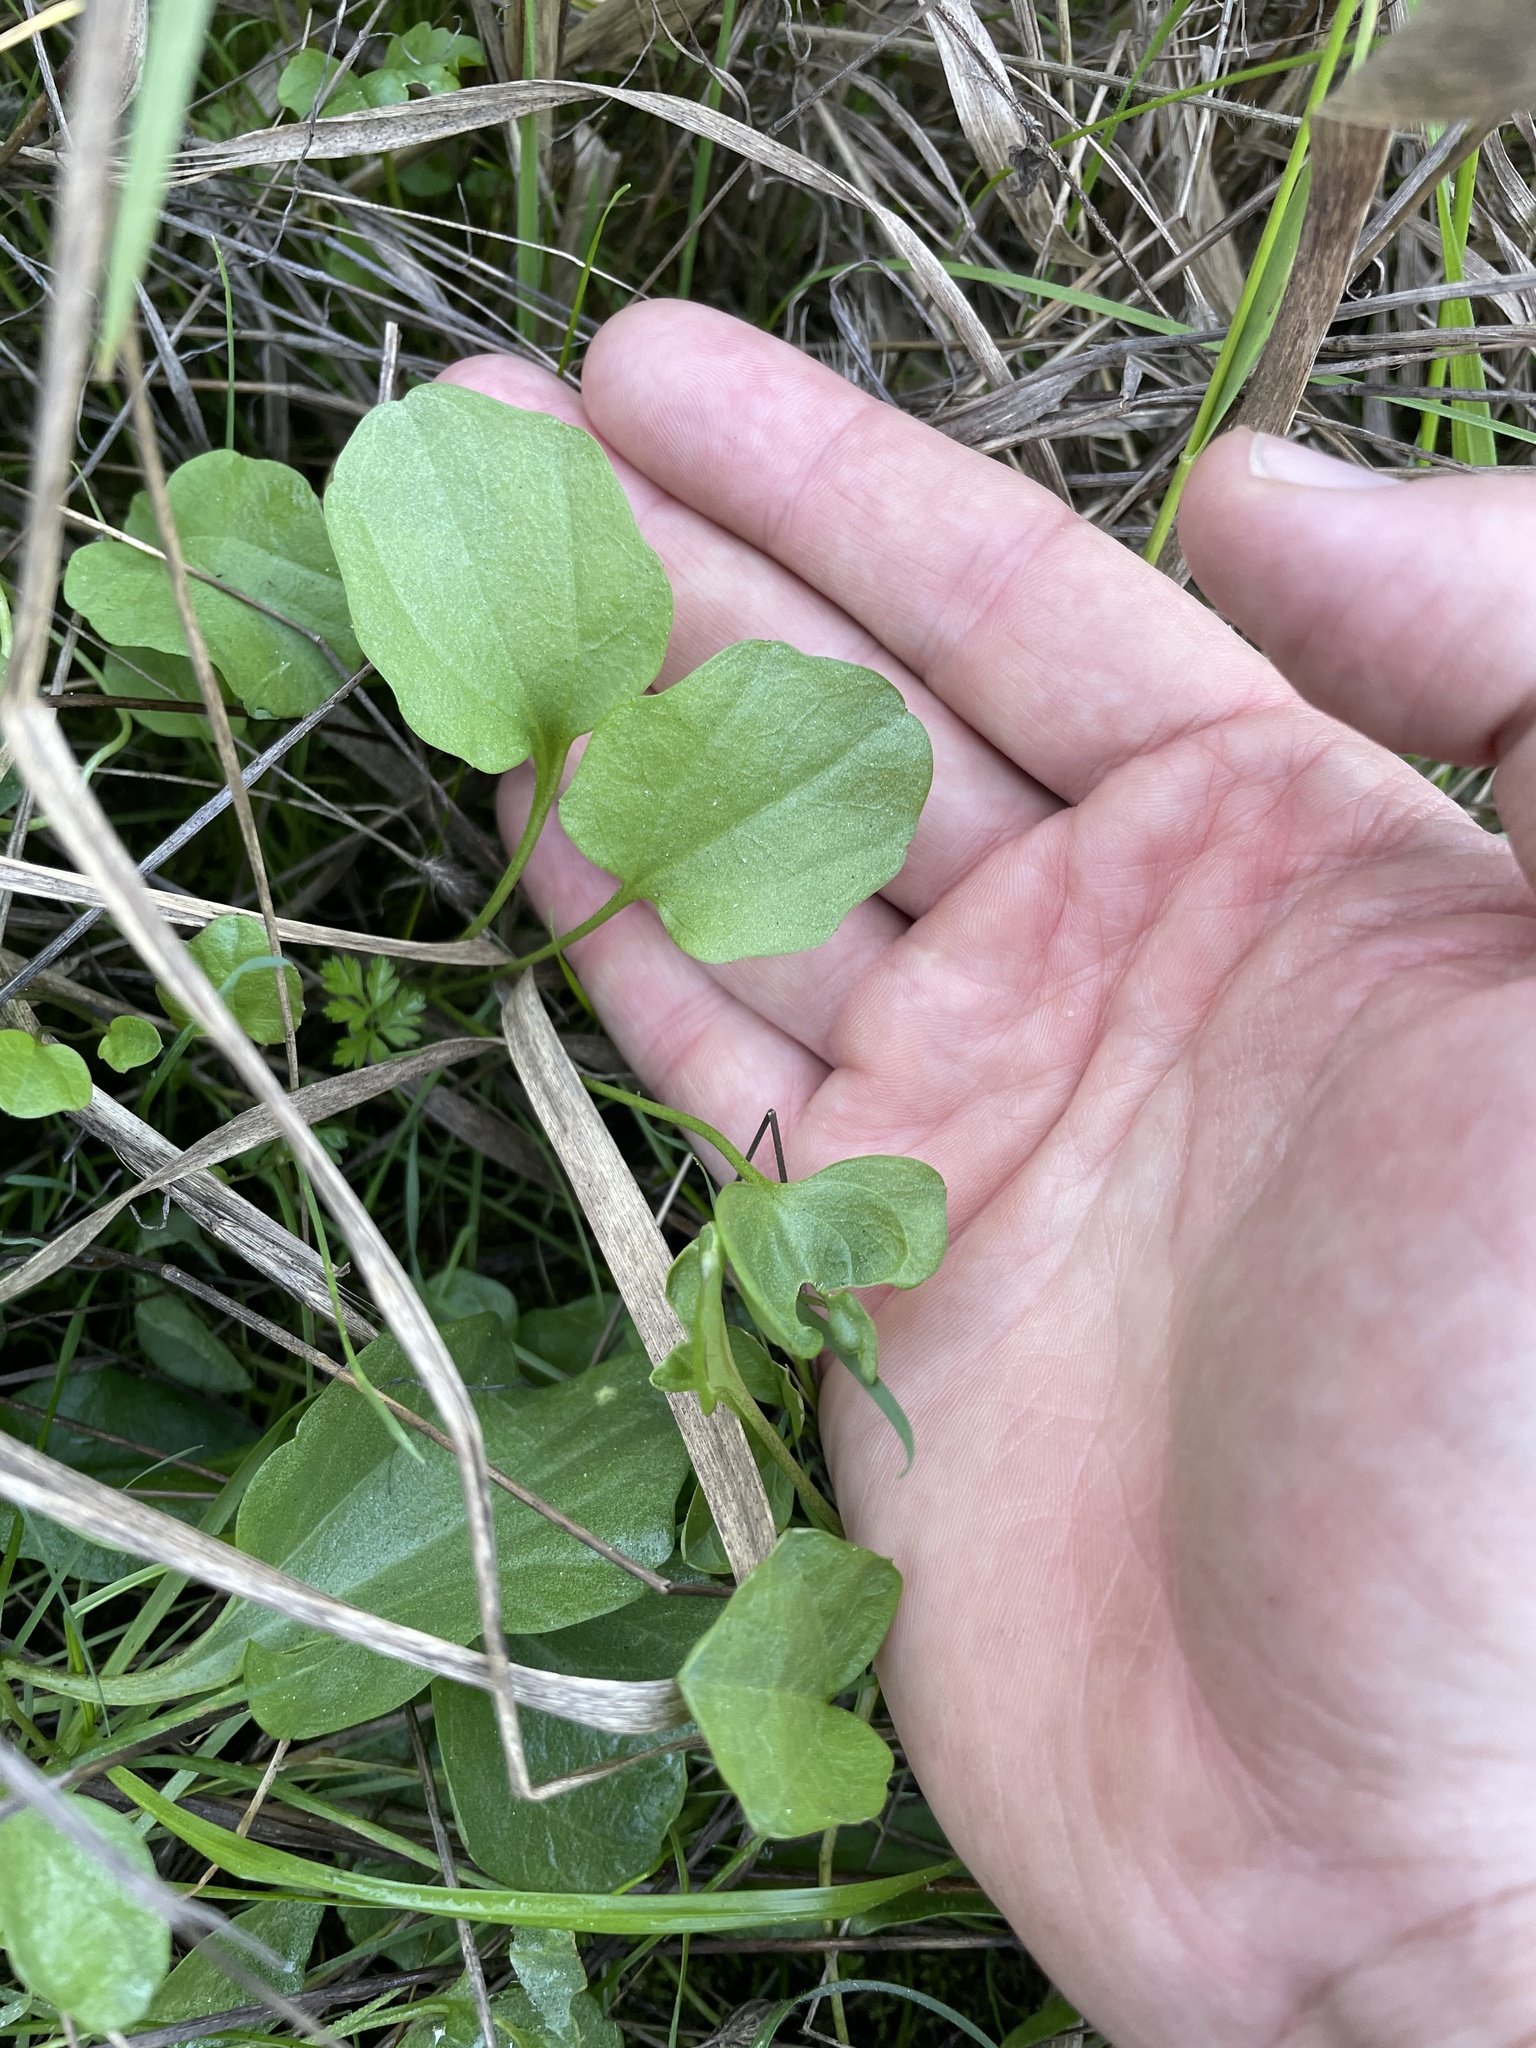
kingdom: Plantae
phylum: Tracheophyta
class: Magnoliopsida
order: Brassicales
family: Brassicaceae
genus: Cardamine
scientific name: Cardamine californica
